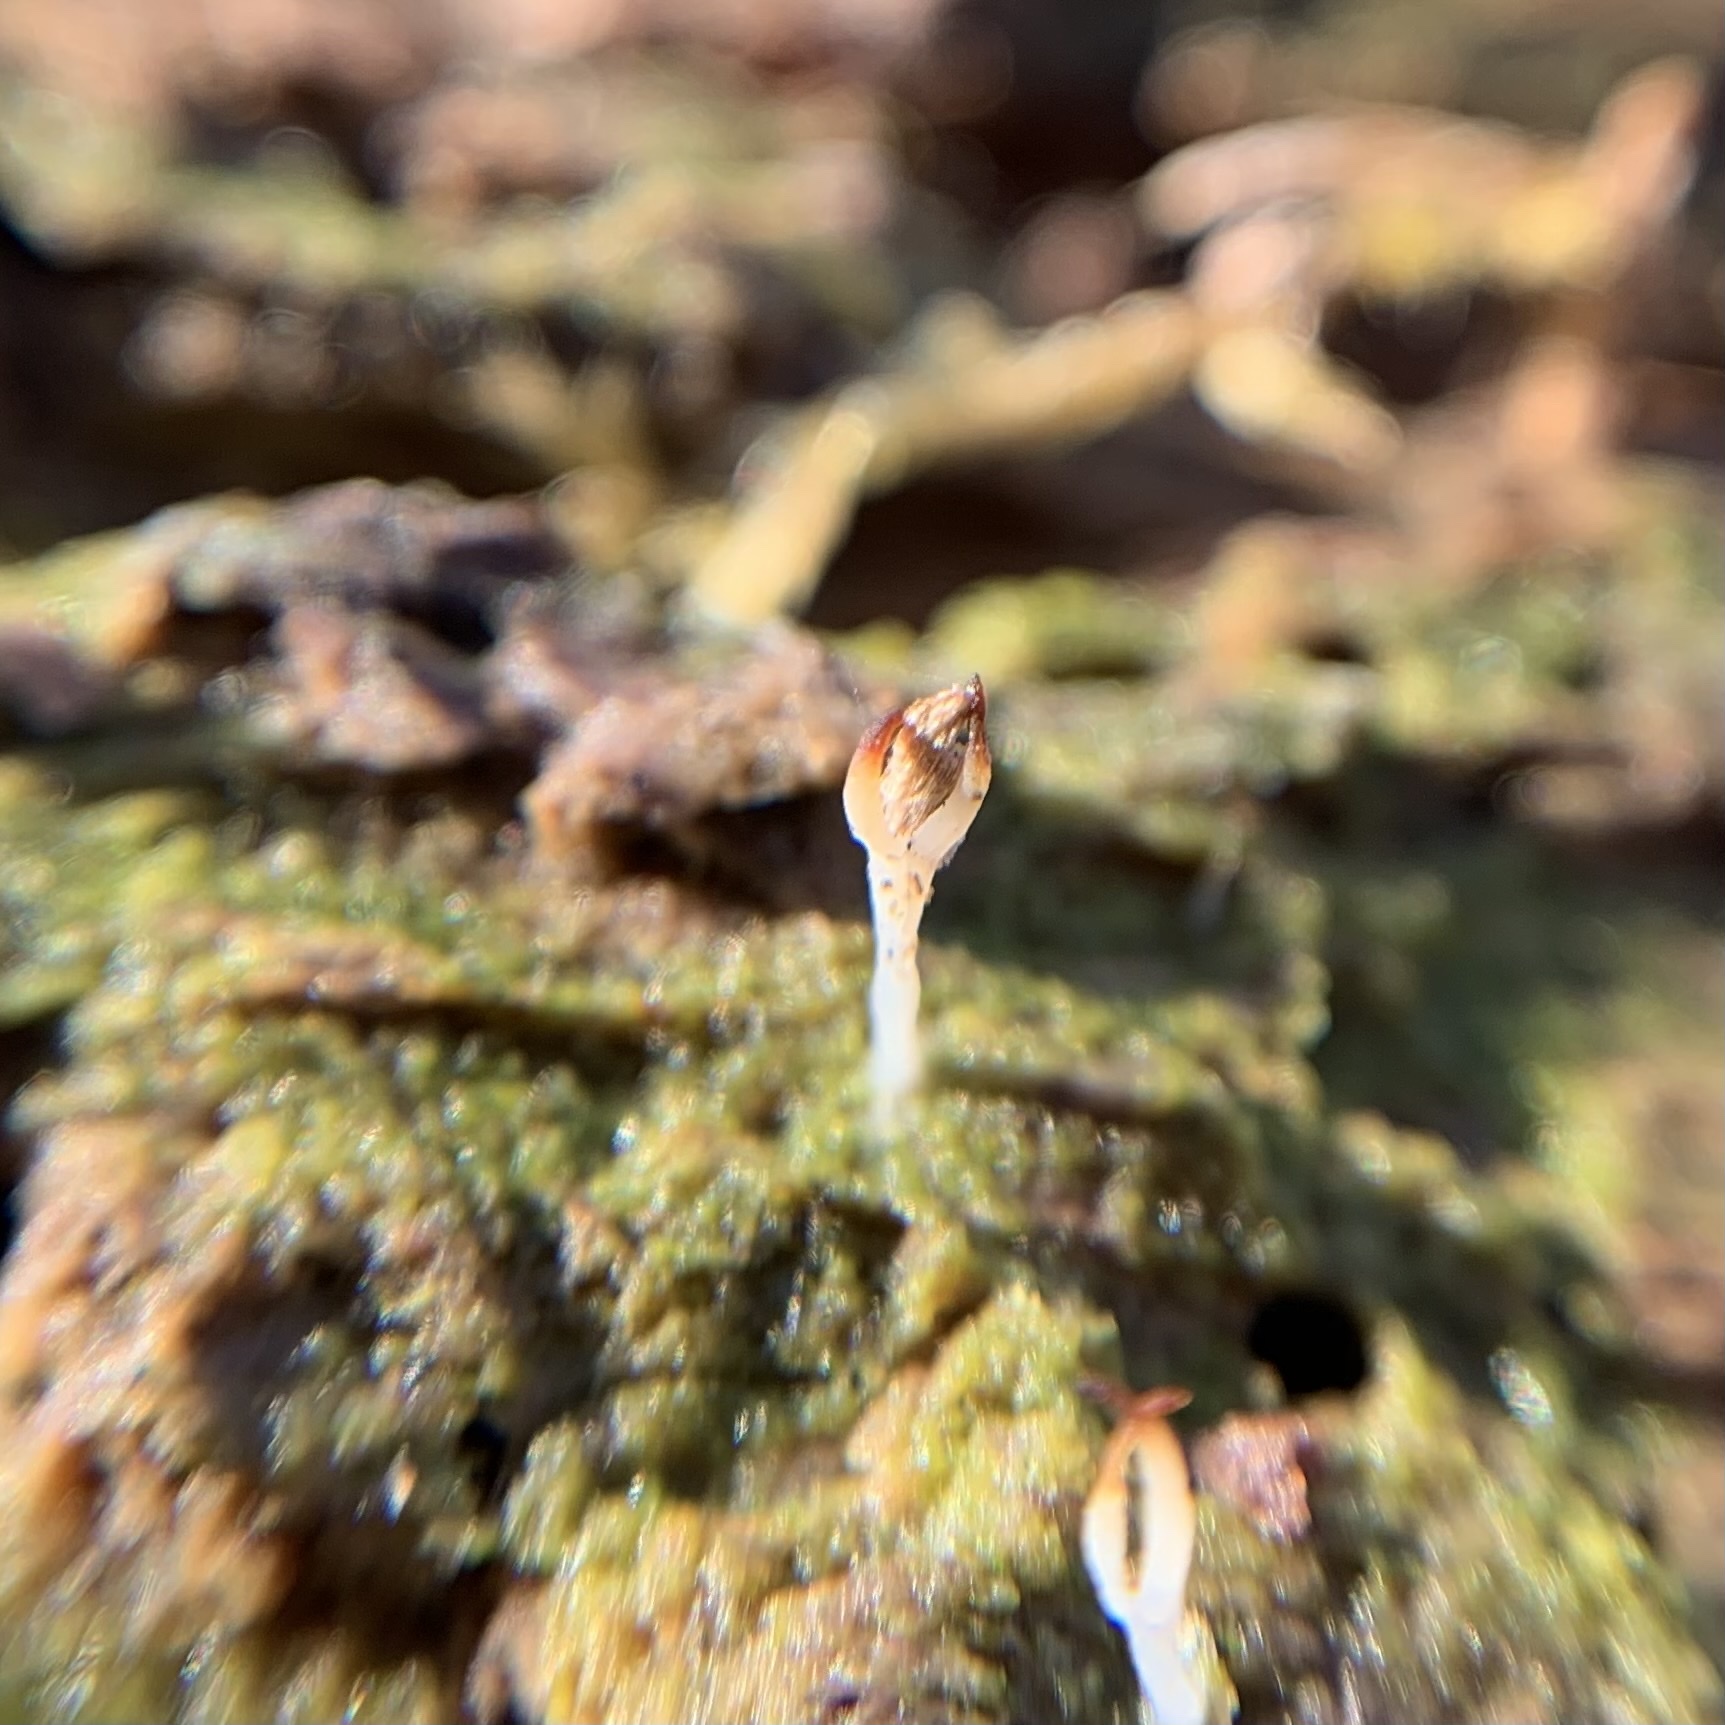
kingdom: Fungi
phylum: Basidiomycota
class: Agaricomycetes
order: Cantharellales
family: Hydnaceae
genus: Multiclavula
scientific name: Multiclavula mucida
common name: White green-algae coral
